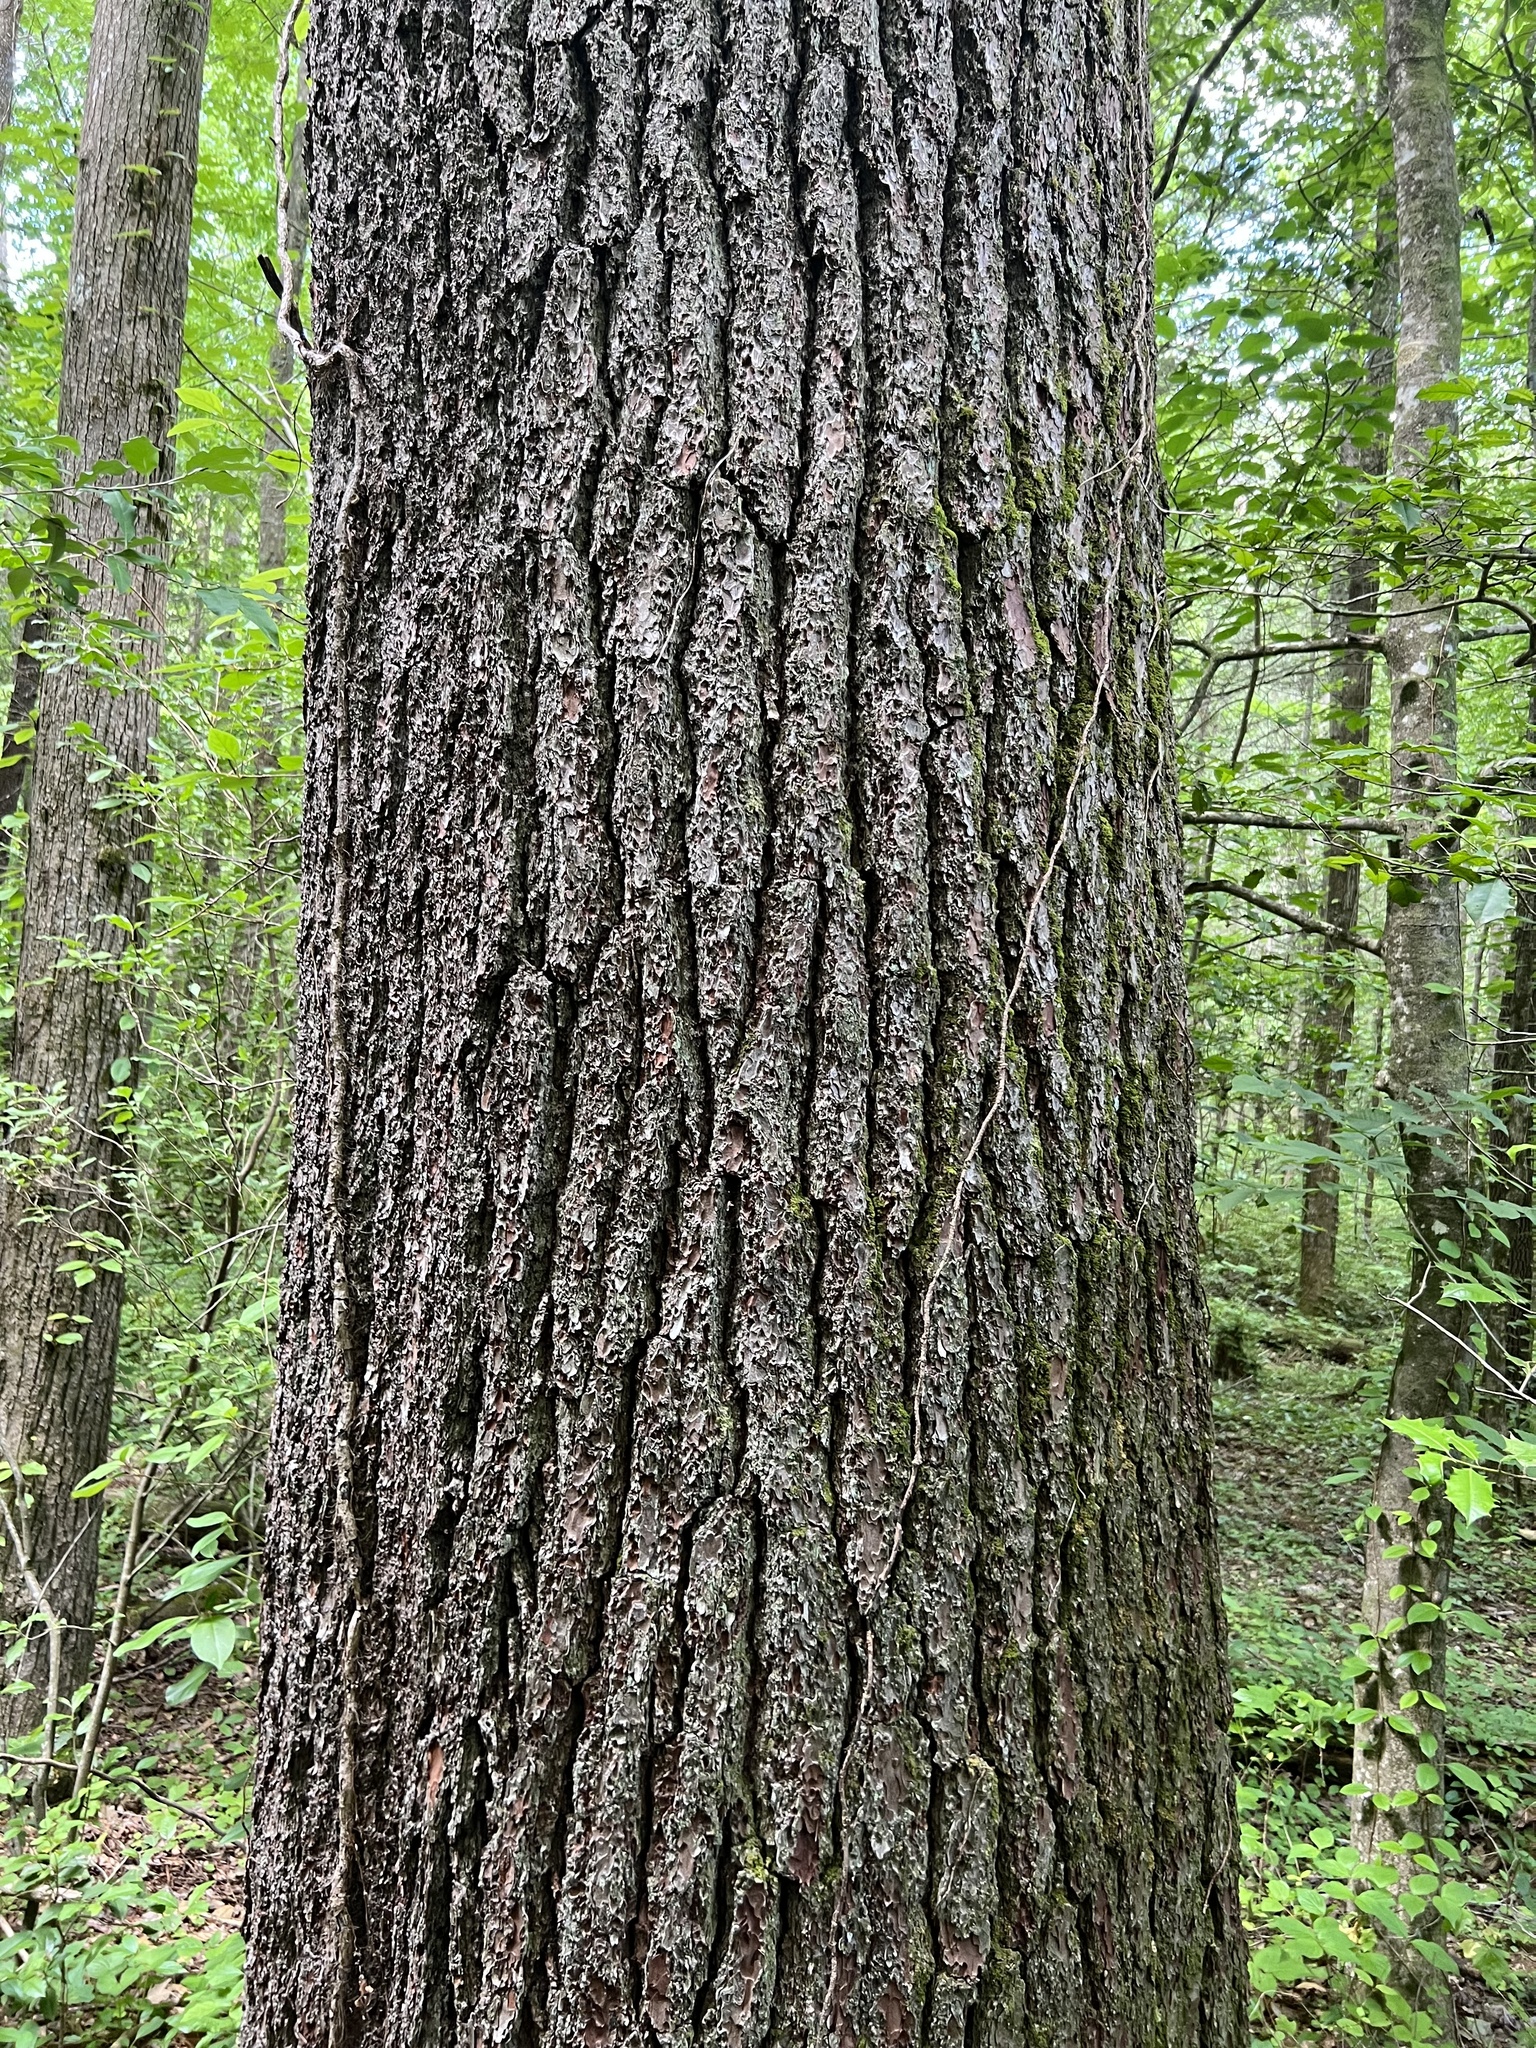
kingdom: Plantae
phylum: Tracheophyta
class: Pinopsida
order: Pinales
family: Pinaceae
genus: Pinus
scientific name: Pinus strobus
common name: Weymouth pine
